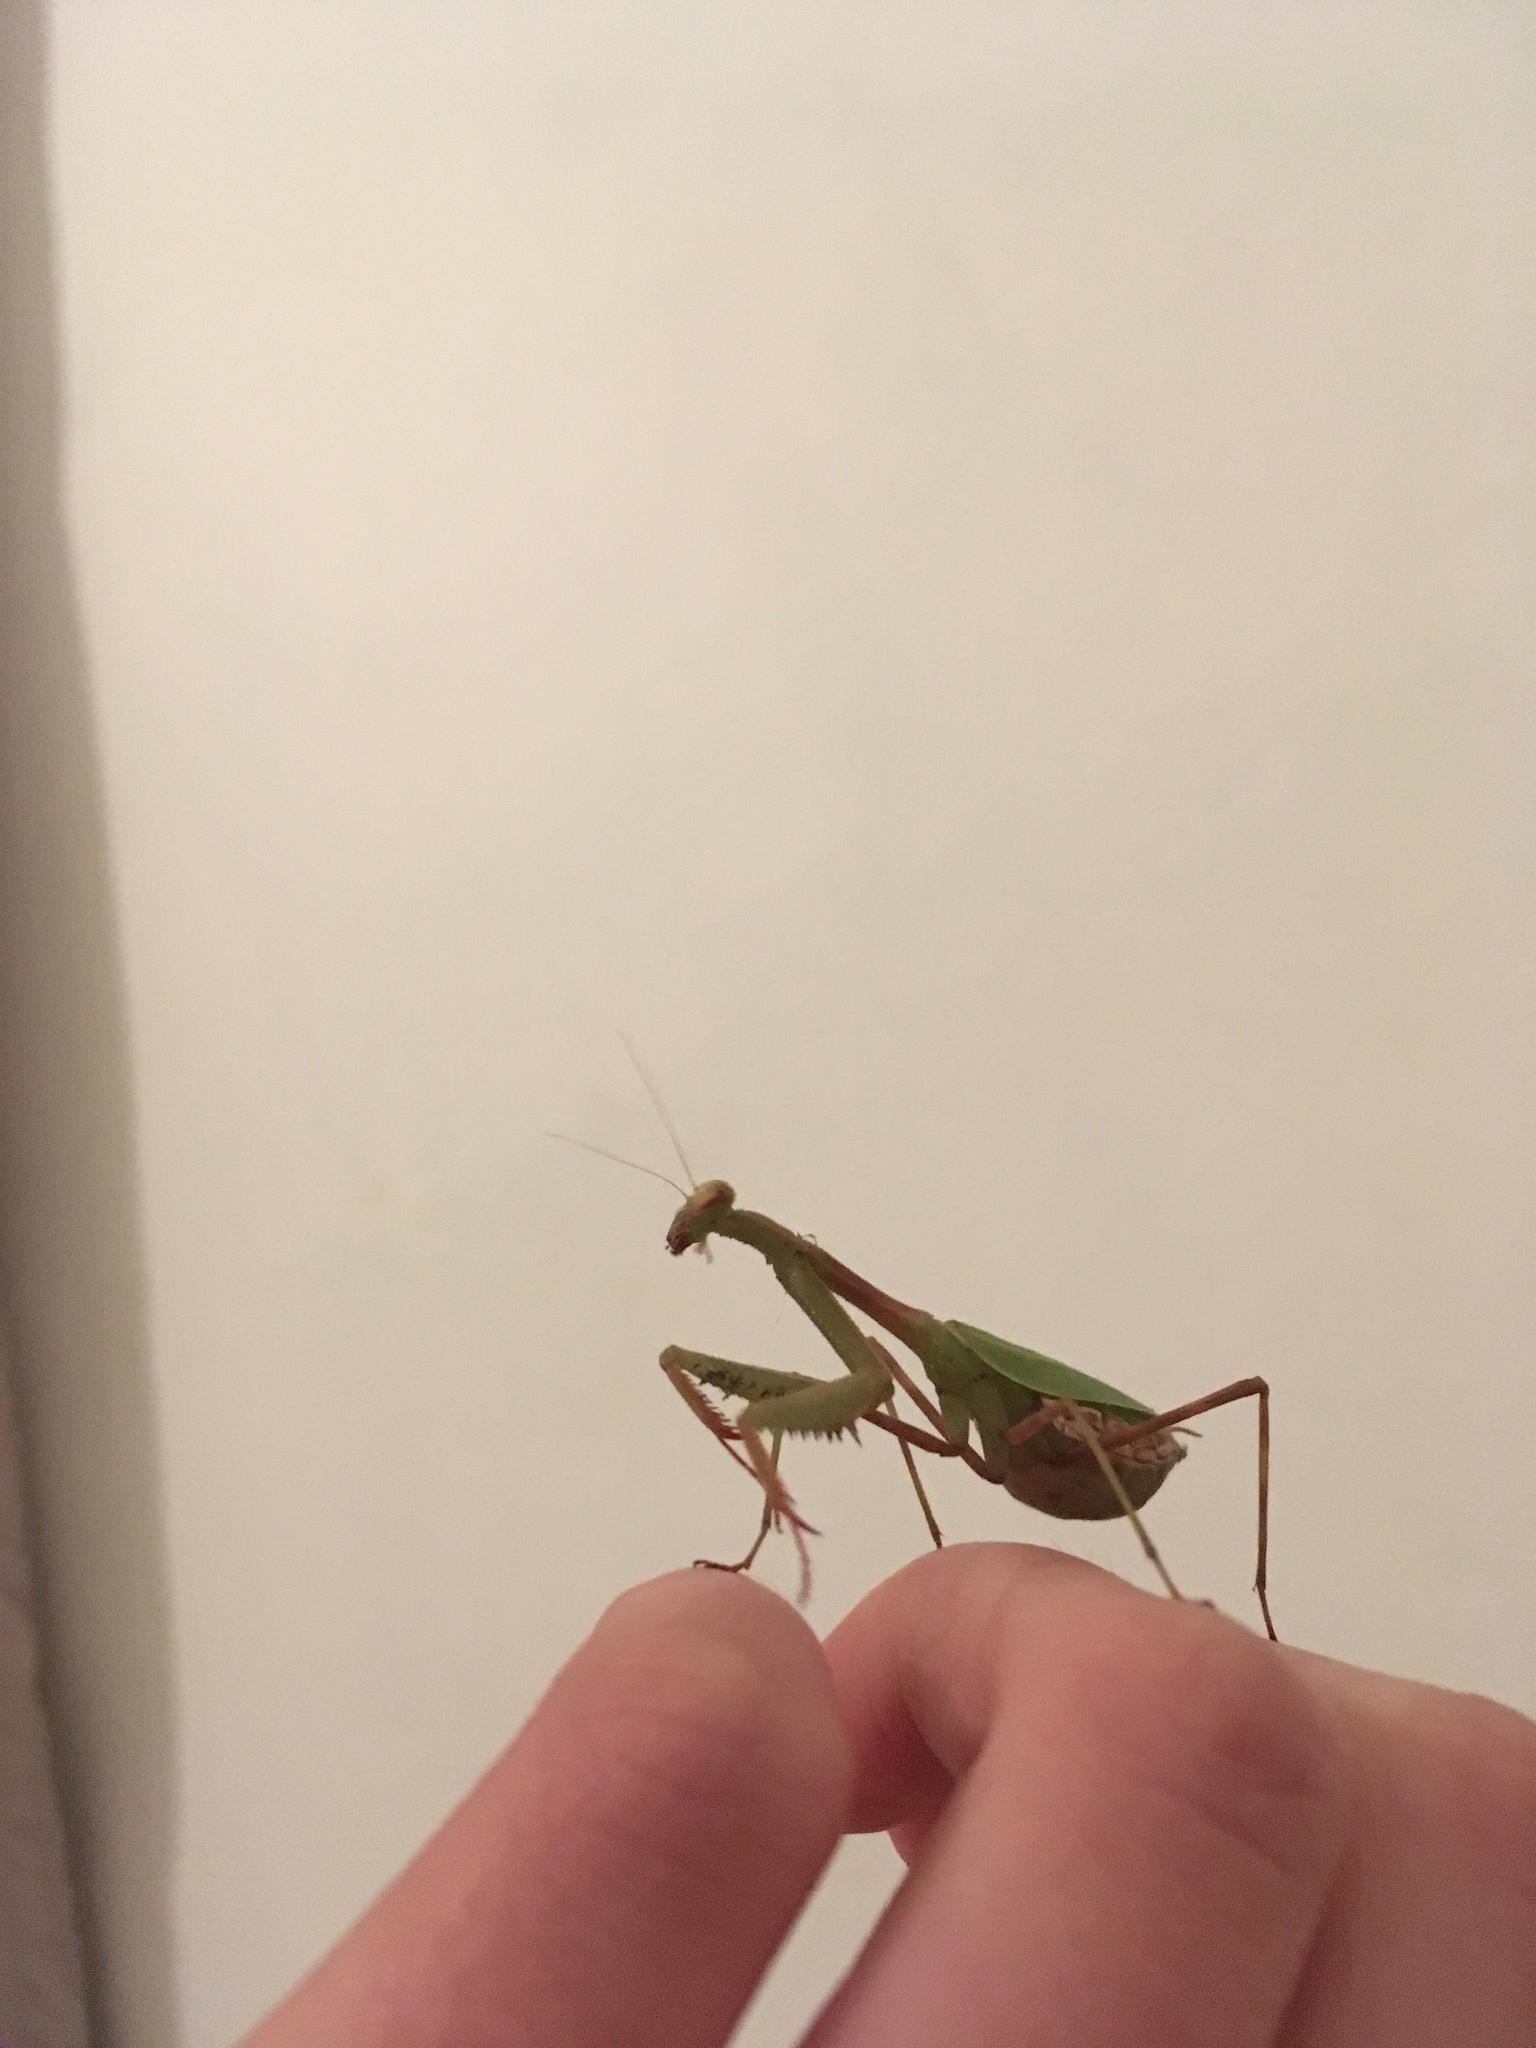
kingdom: Animalia
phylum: Arthropoda
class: Insecta
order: Mantodea
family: Miomantidae
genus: Miomantis
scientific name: Miomantis caffra
